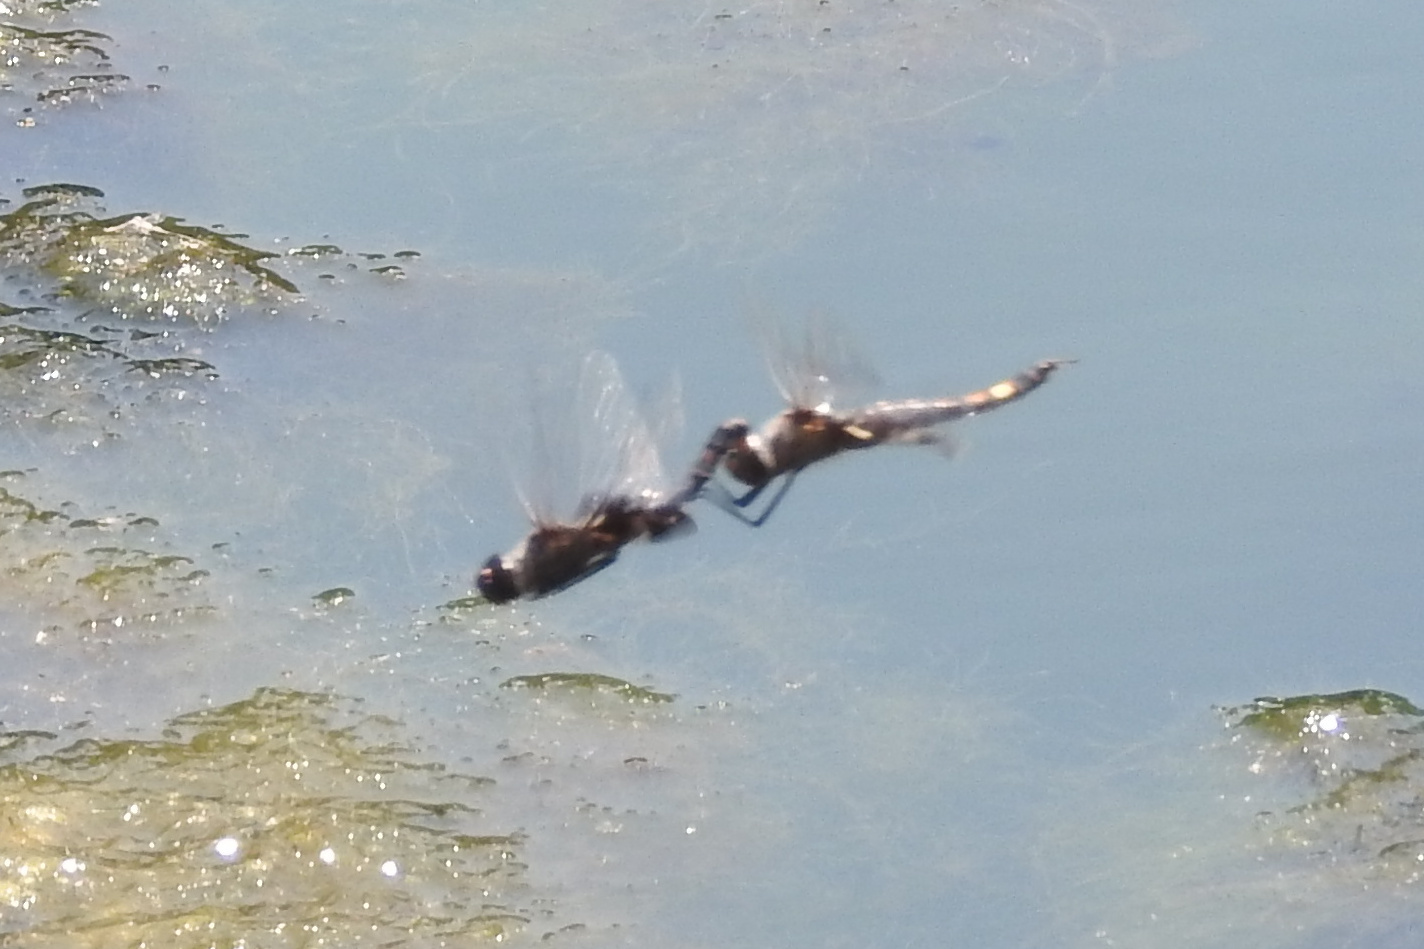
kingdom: Animalia
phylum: Arthropoda
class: Insecta
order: Odonata
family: Libellulidae
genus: Tramea
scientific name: Tramea lacerata
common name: Black saddlebags
